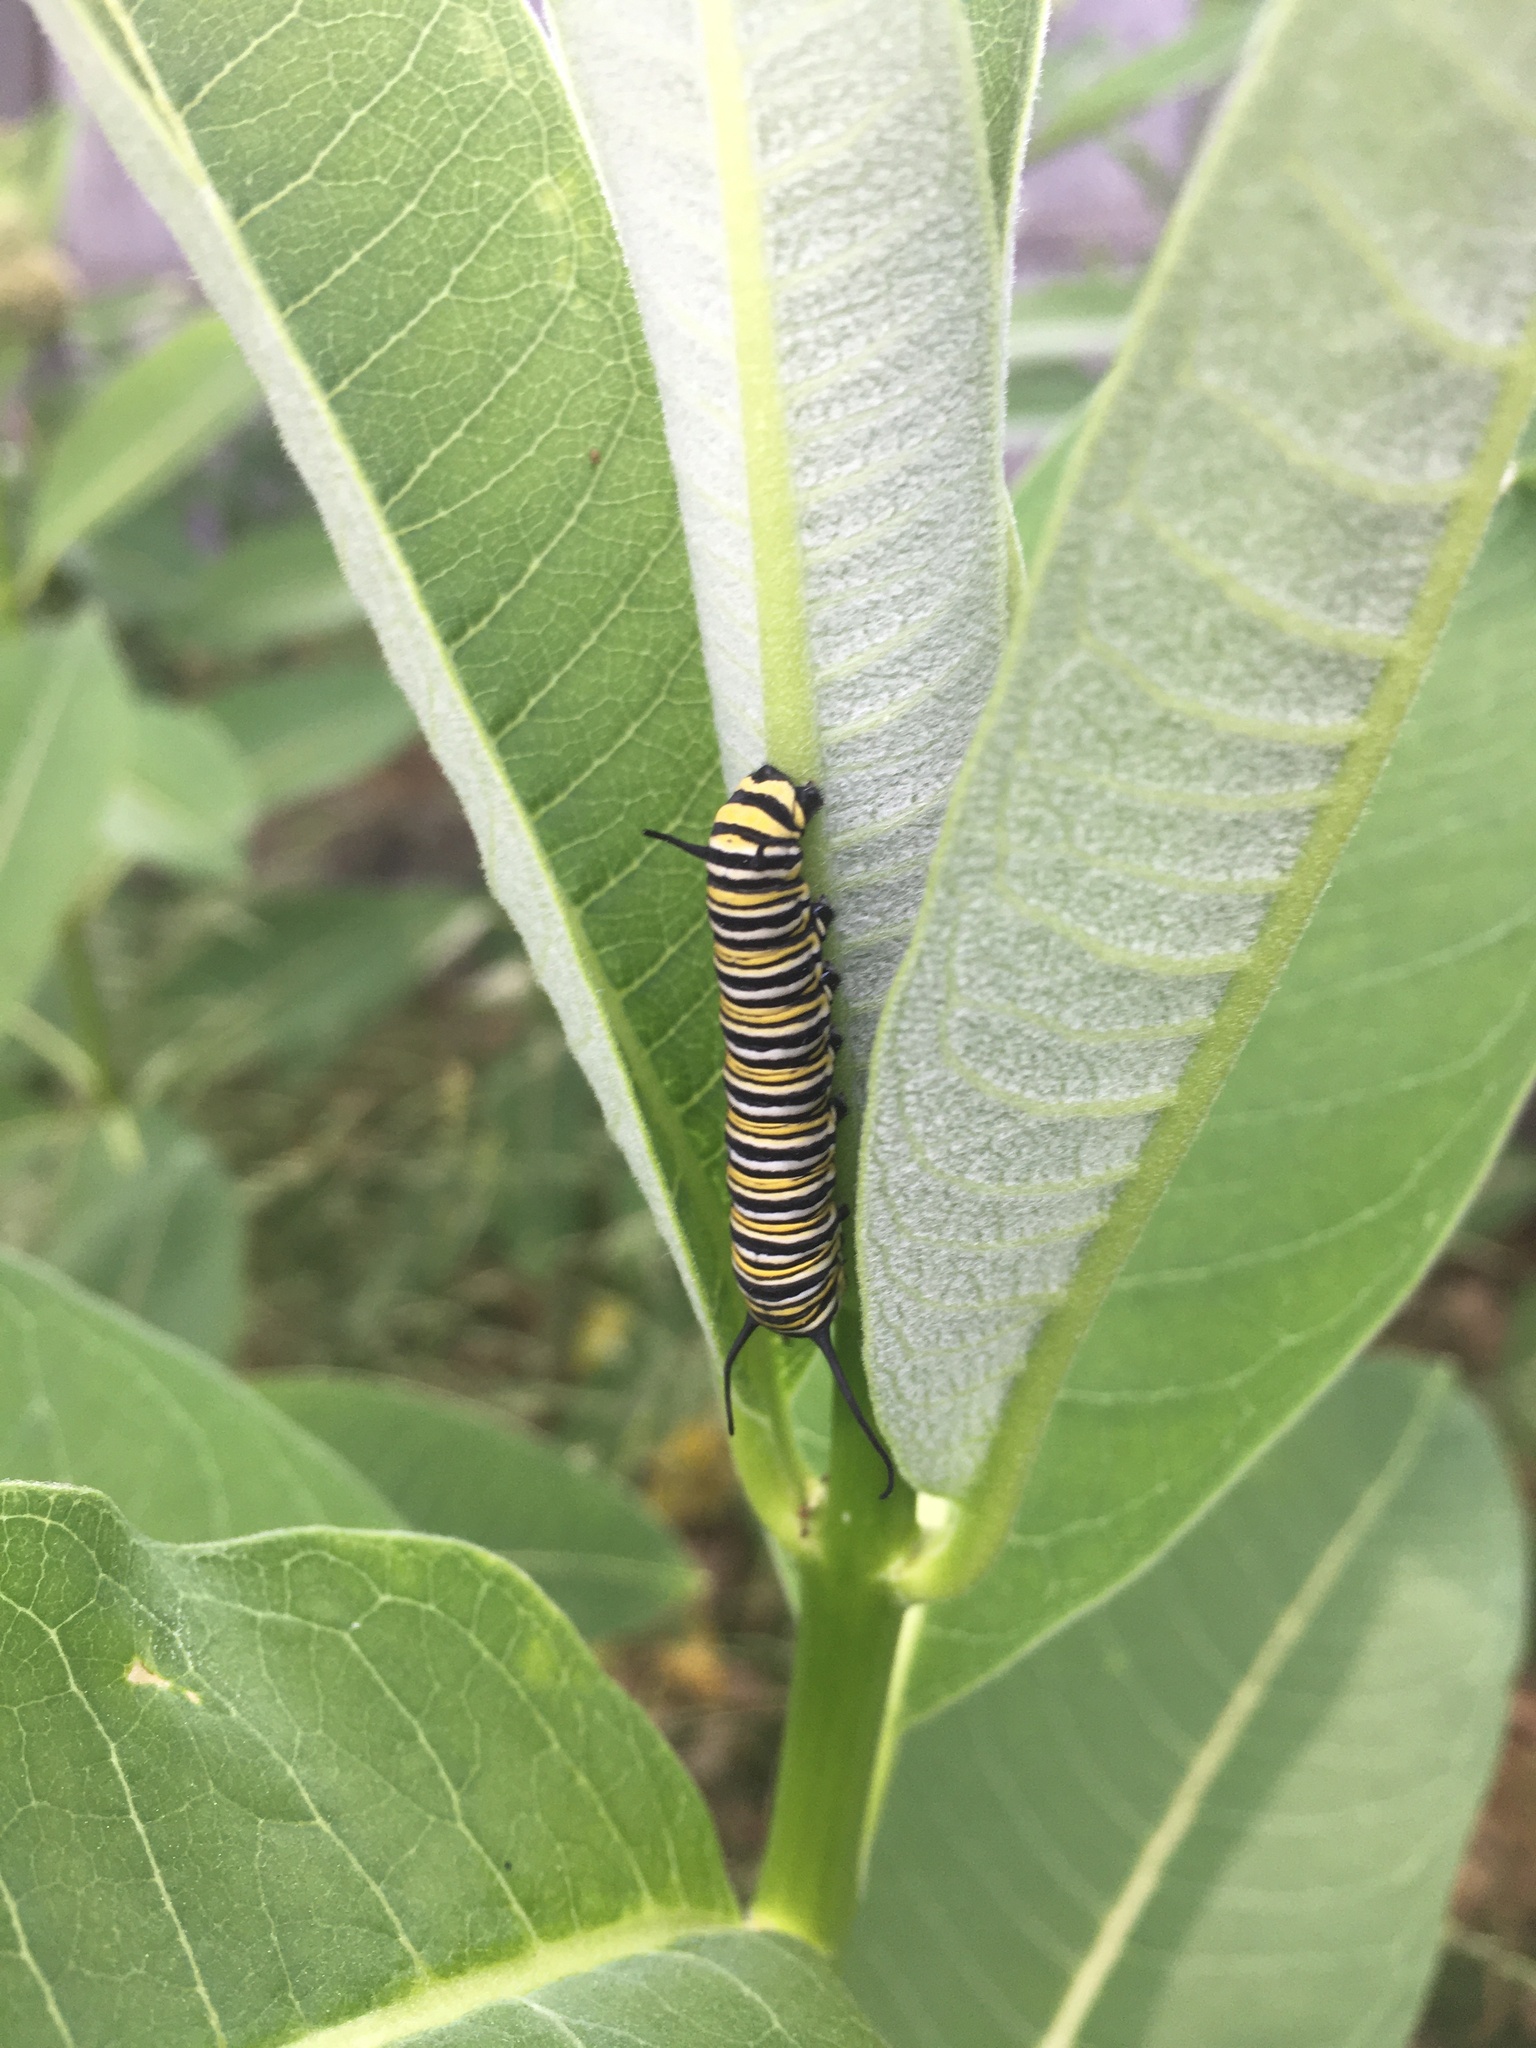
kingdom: Animalia
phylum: Arthropoda
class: Insecta
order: Lepidoptera
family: Nymphalidae
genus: Danaus
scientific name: Danaus plexippus
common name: Monarch
